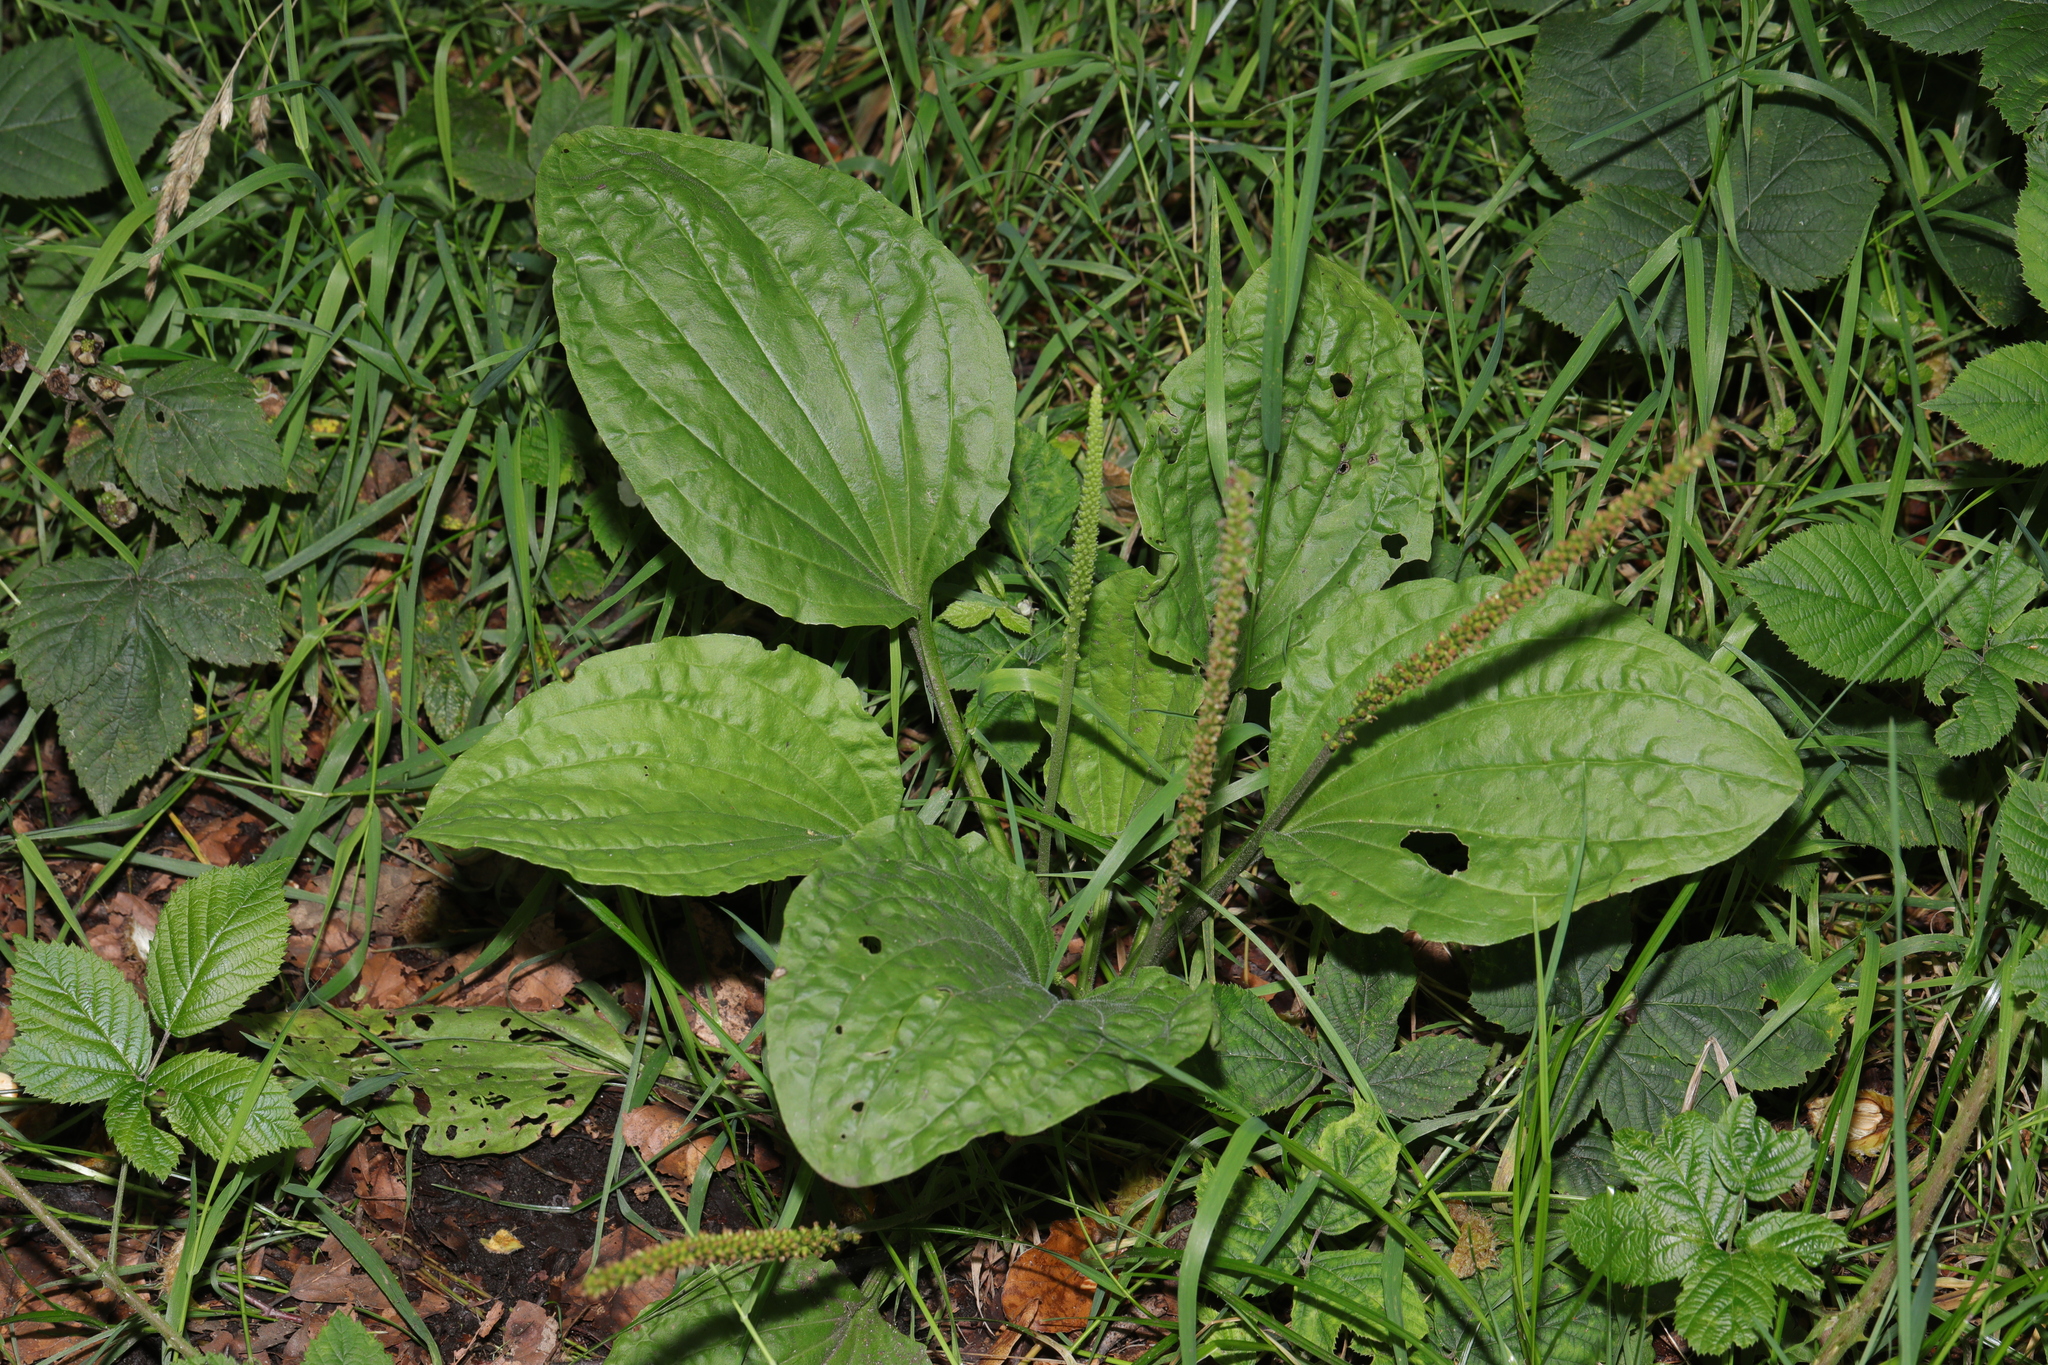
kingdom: Plantae
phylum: Tracheophyta
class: Magnoliopsida
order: Lamiales
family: Plantaginaceae
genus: Plantago
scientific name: Plantago major
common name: Common plantain
